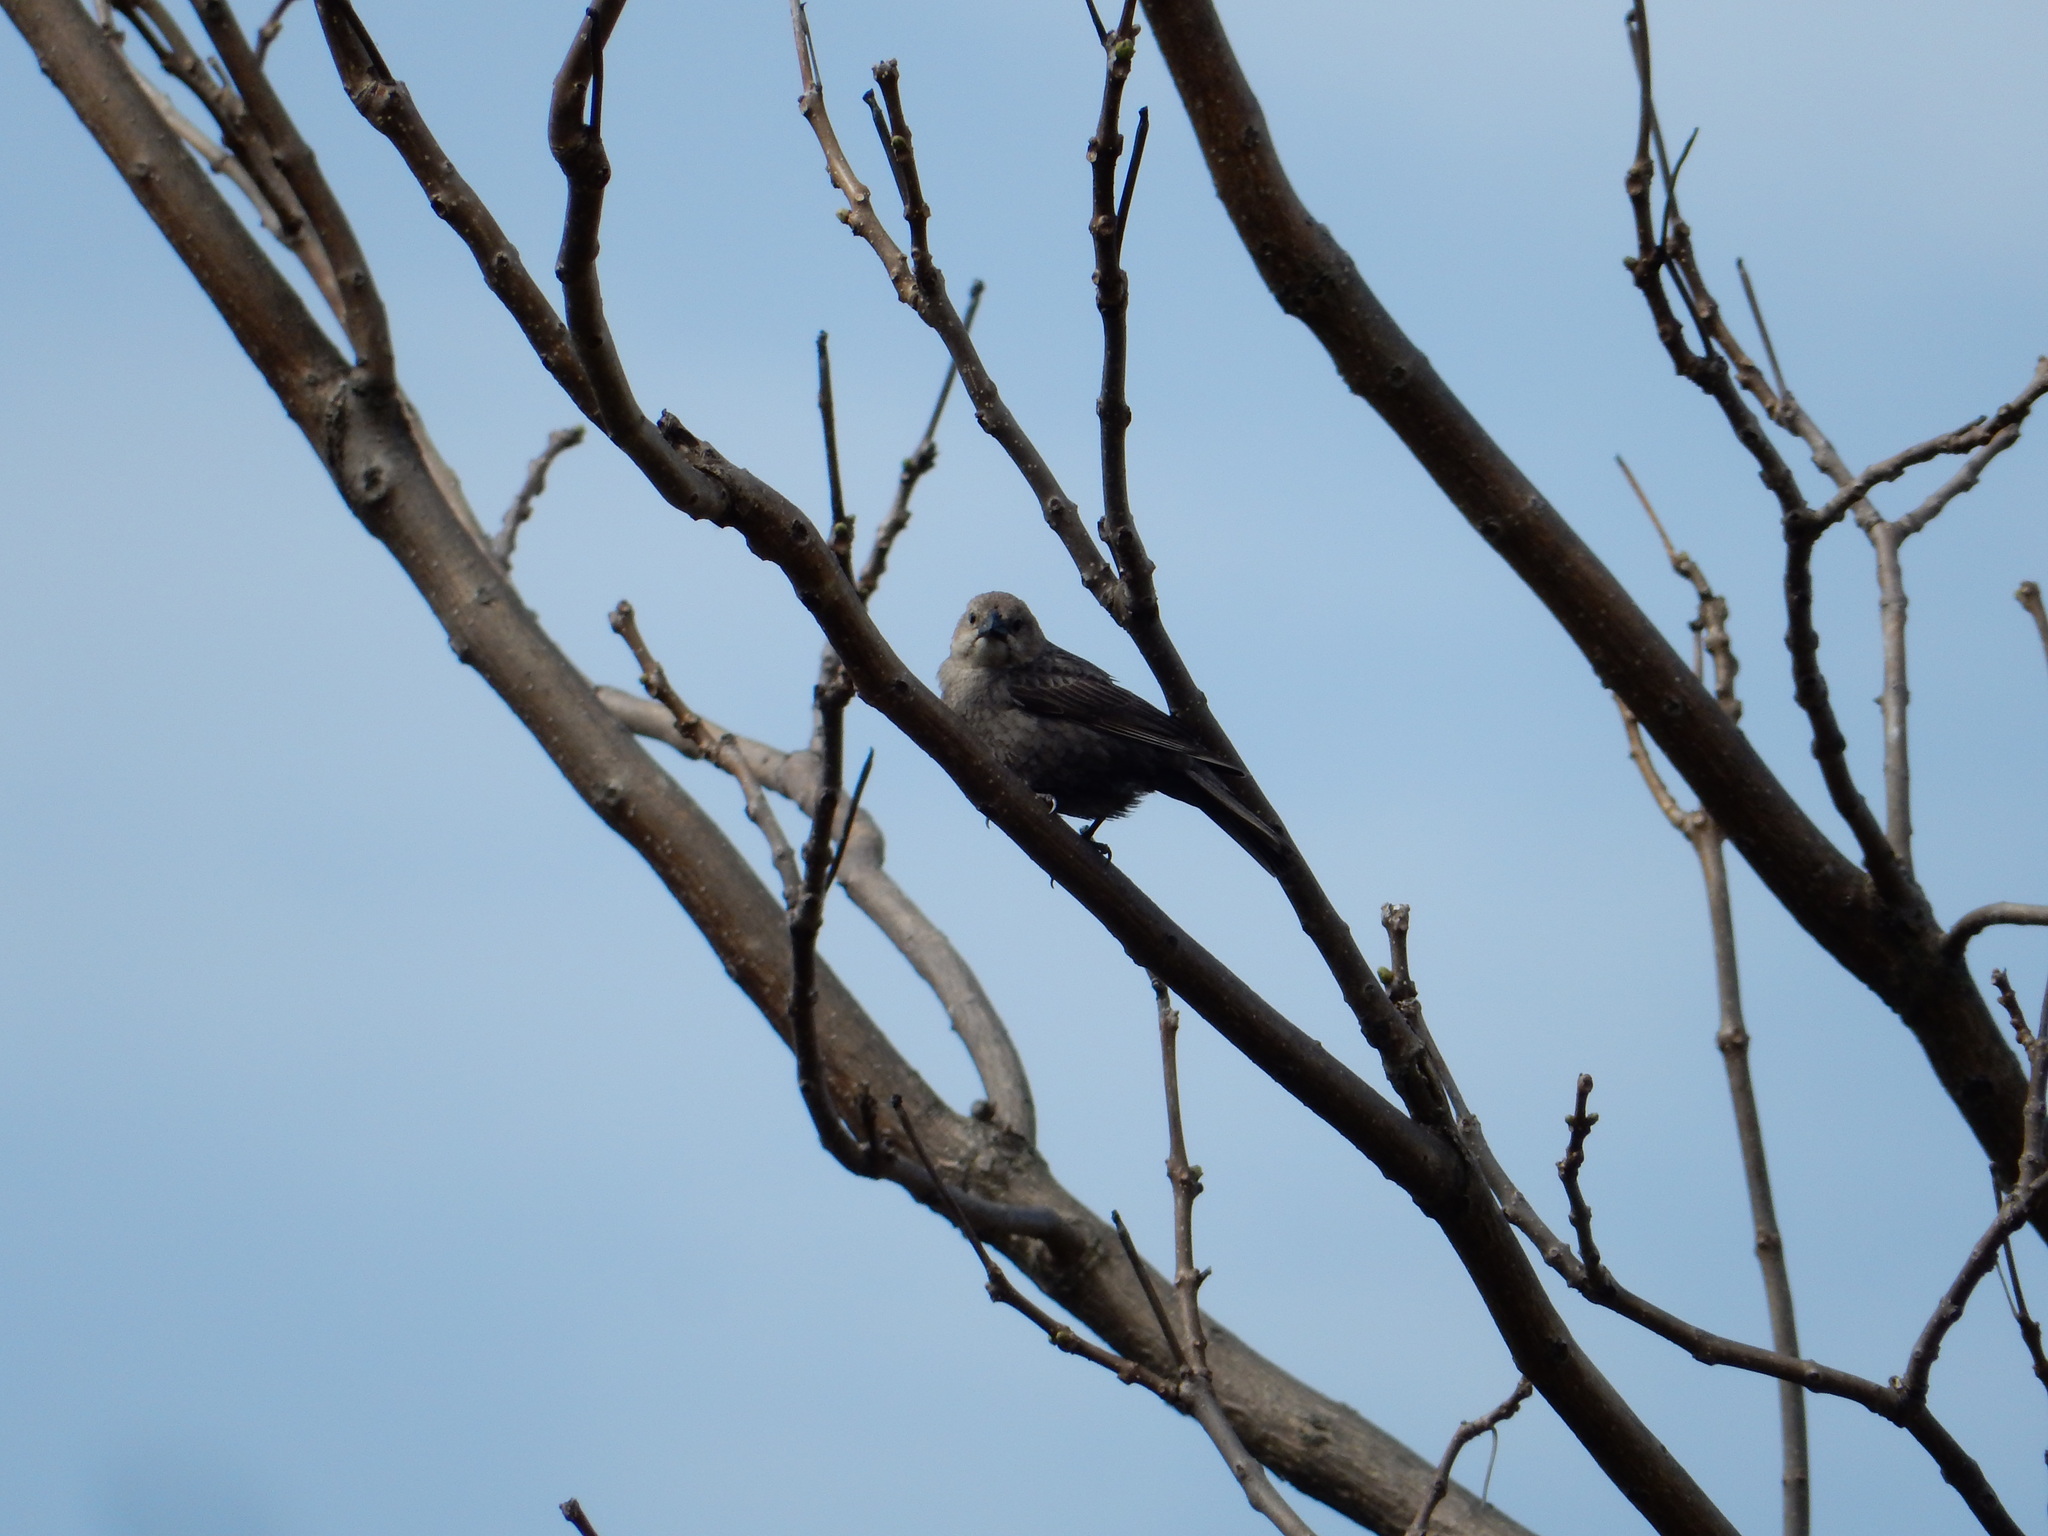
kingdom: Animalia
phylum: Chordata
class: Aves
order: Passeriformes
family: Icteridae
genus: Molothrus
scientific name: Molothrus ater
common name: Brown-headed cowbird
